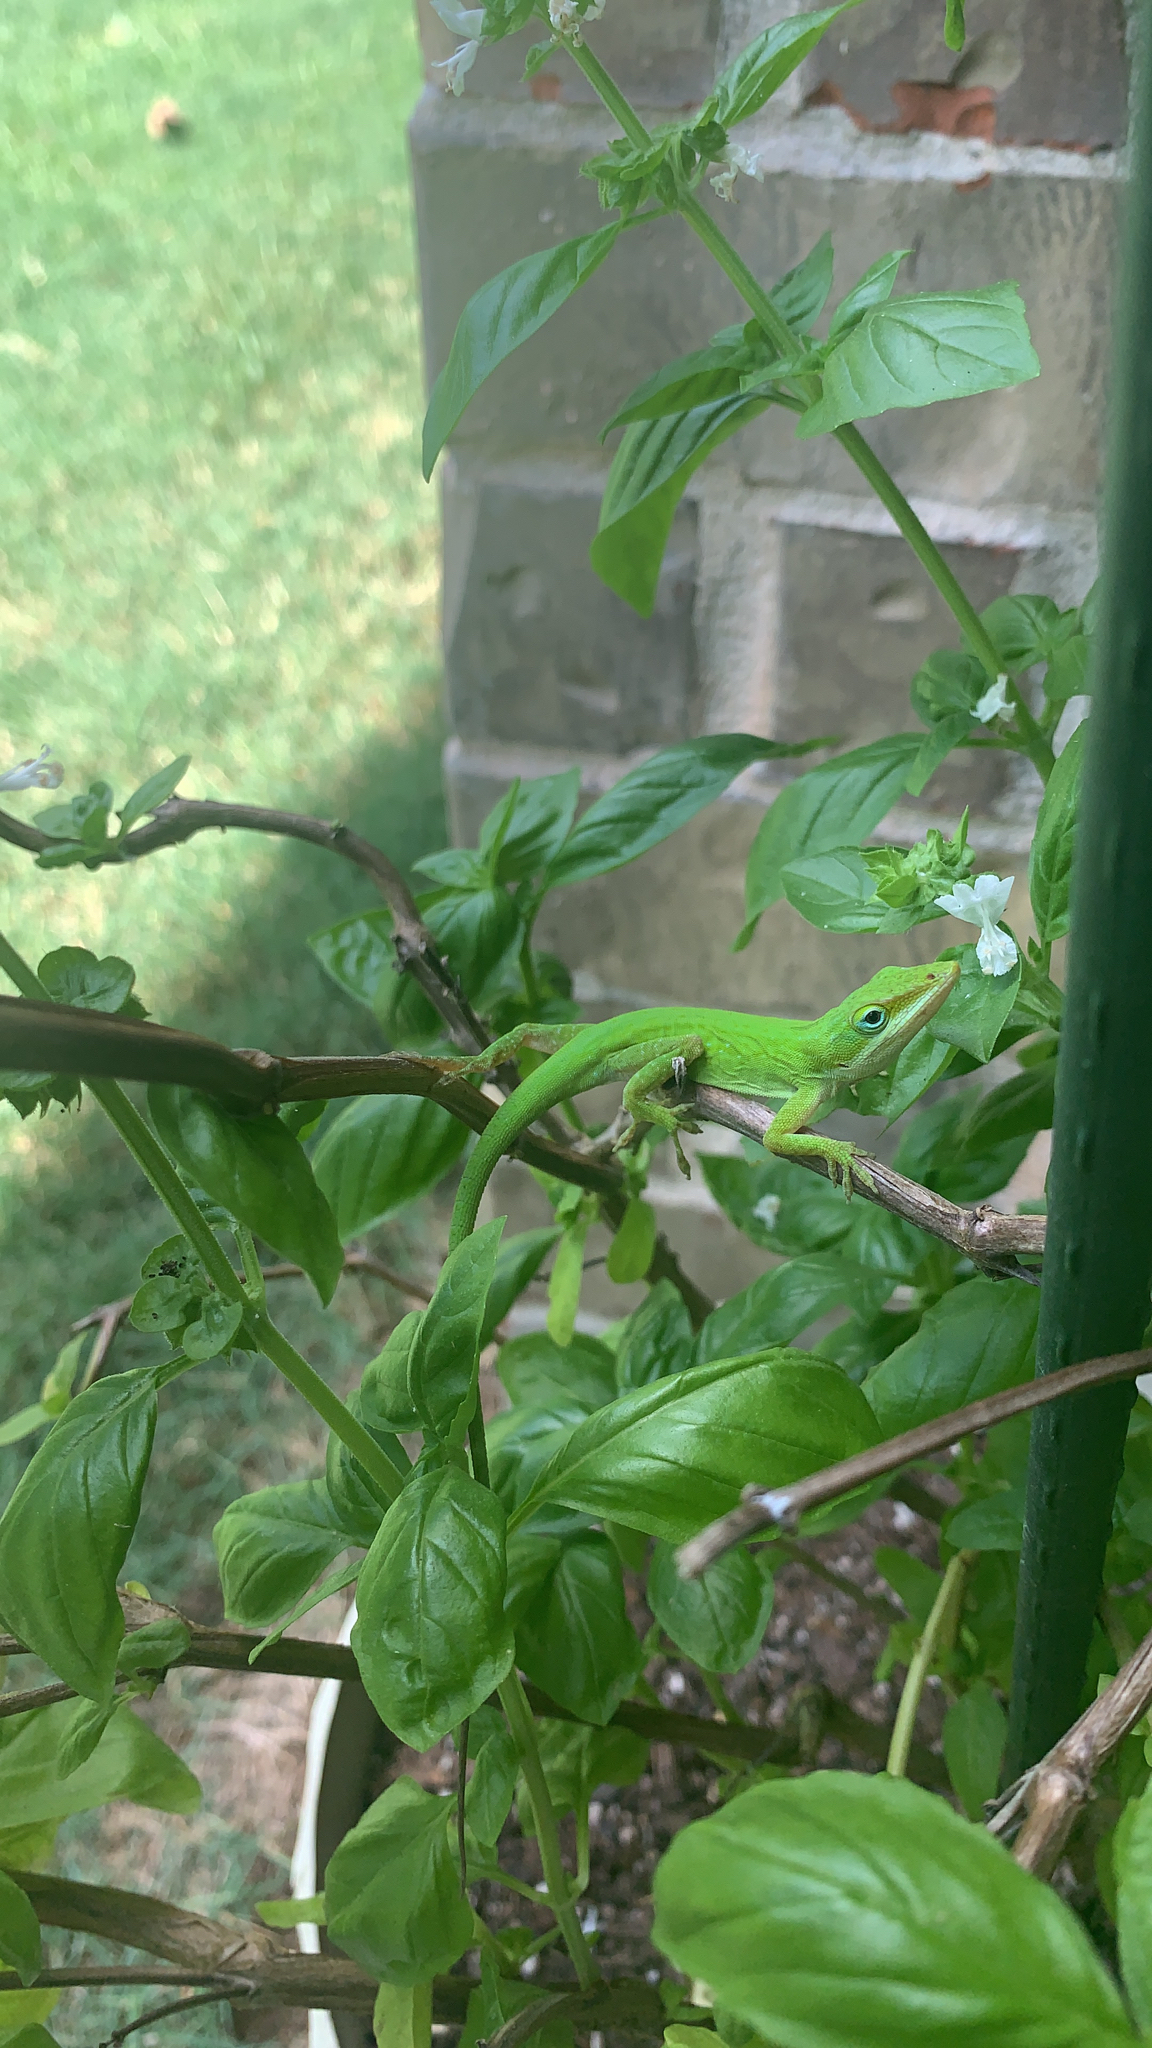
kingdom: Animalia
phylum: Chordata
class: Squamata
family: Dactyloidae
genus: Anolis
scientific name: Anolis carolinensis
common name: Green anole
